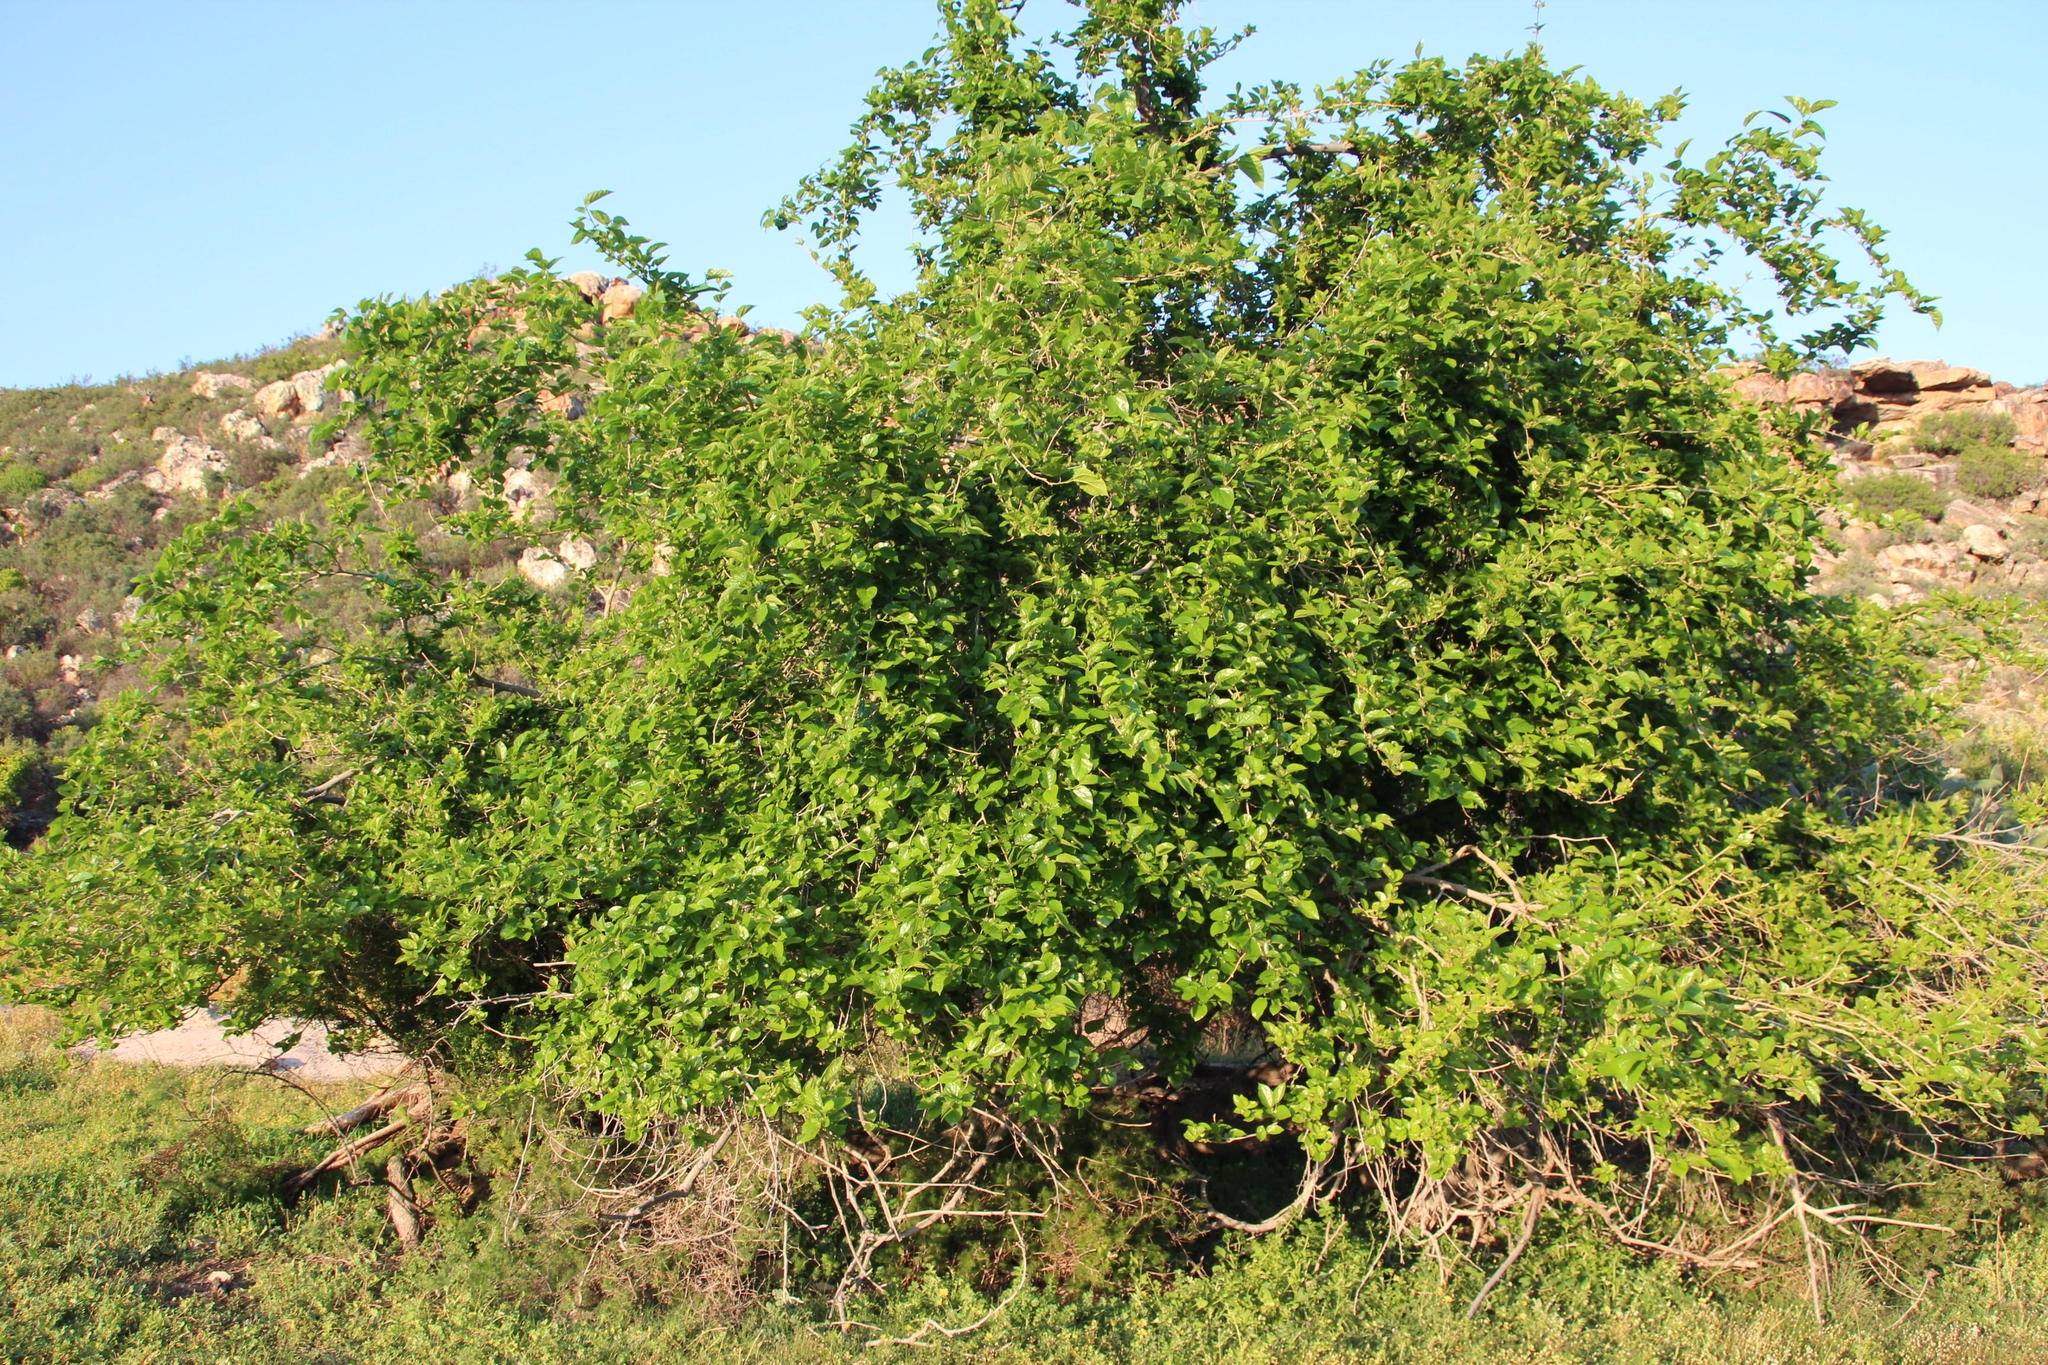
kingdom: Plantae
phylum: Tracheophyta
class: Magnoliopsida
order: Rosales
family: Moraceae
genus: Morus
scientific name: Morus alba
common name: White mulberry
